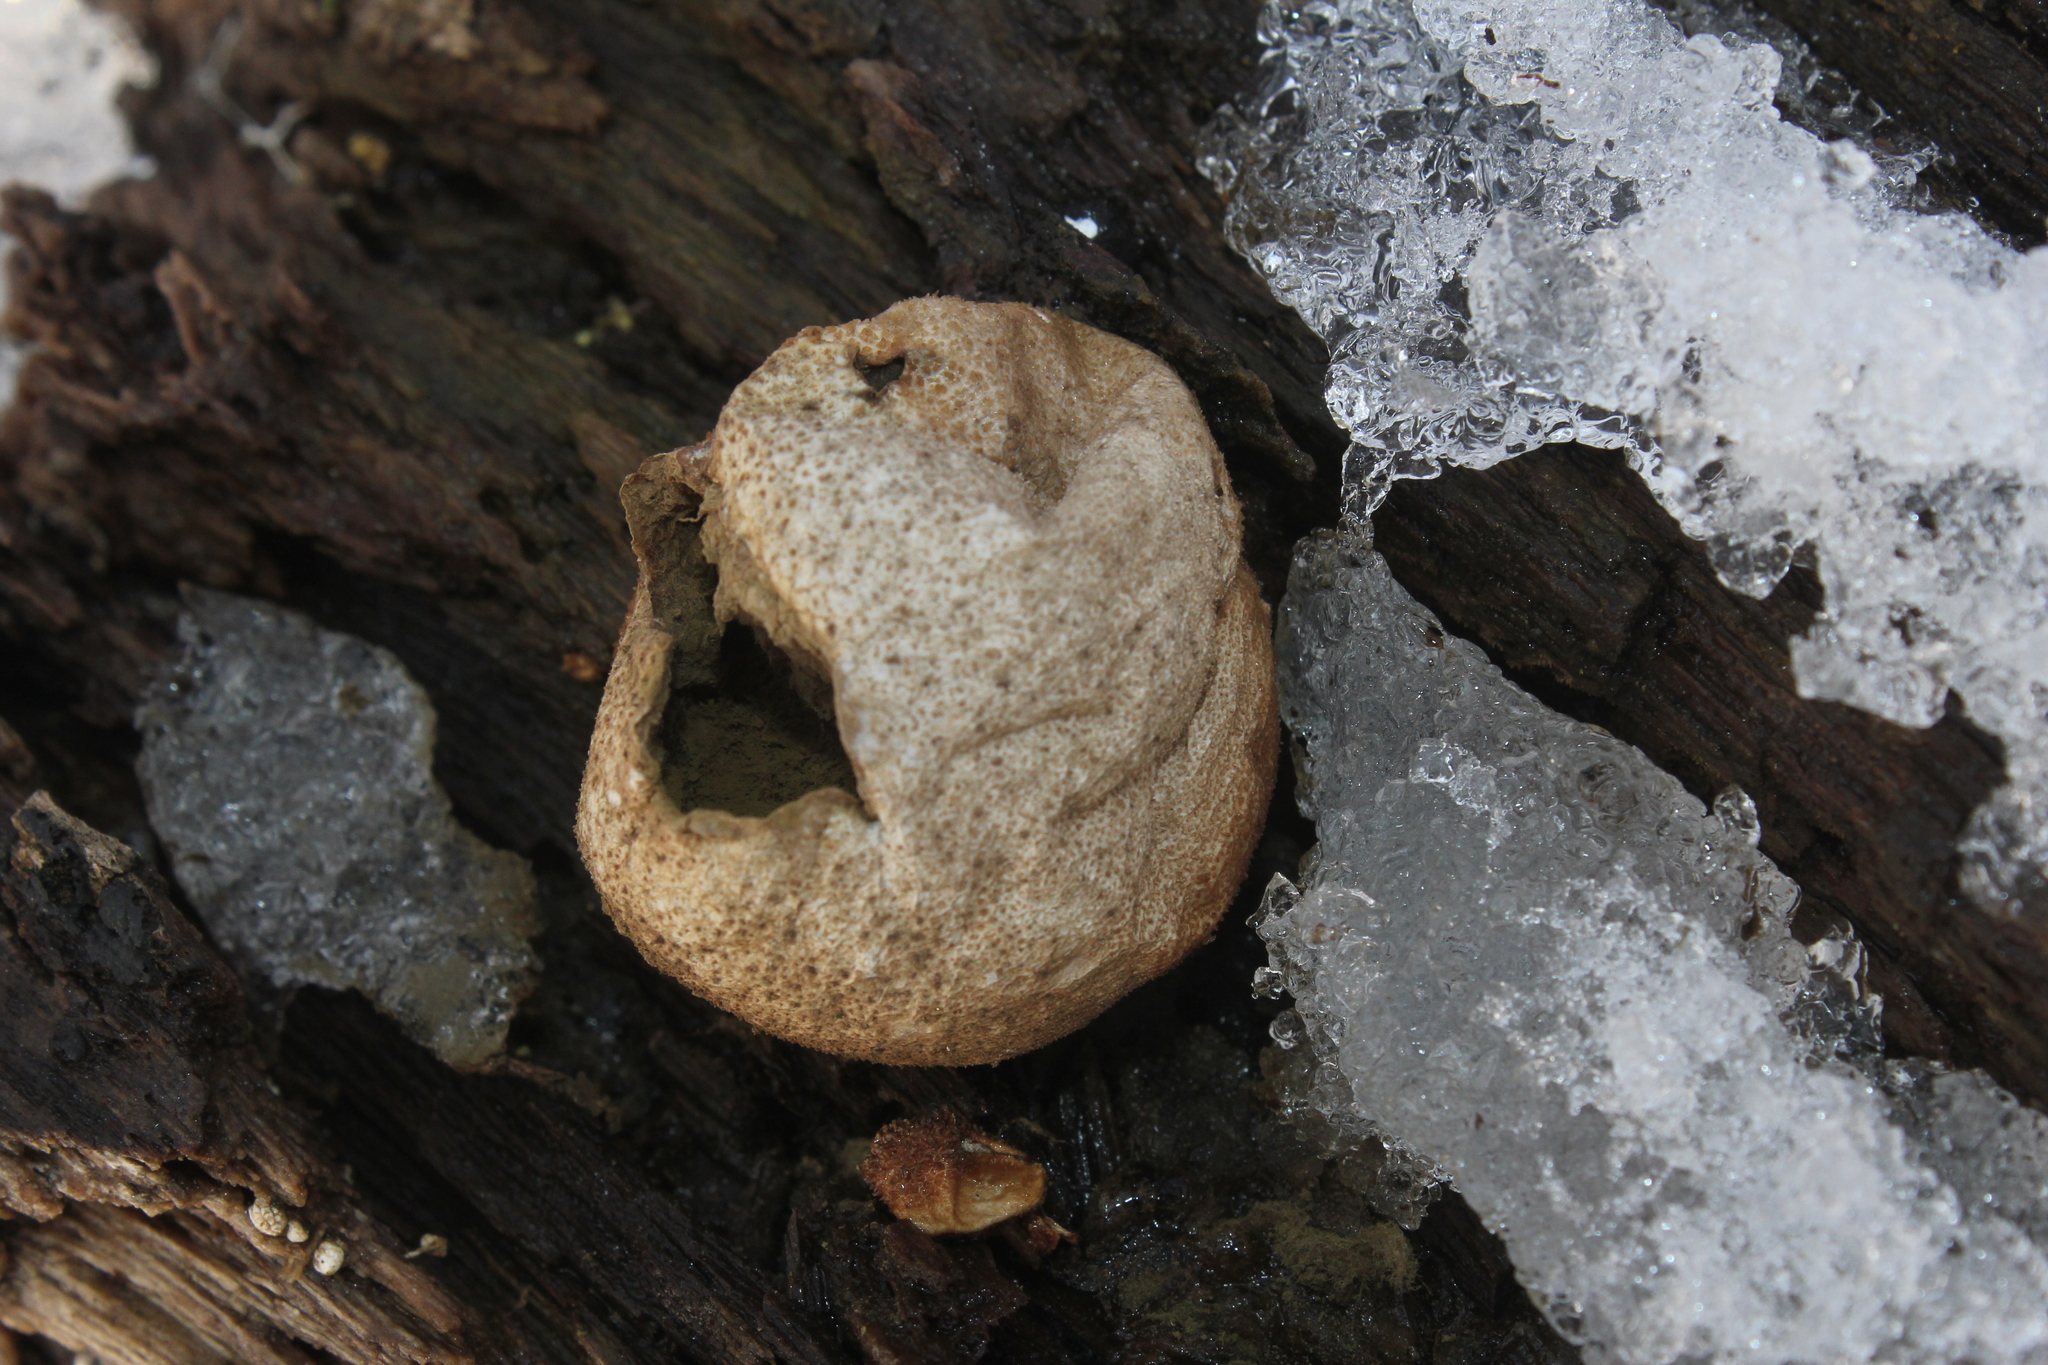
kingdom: Fungi
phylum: Basidiomycota
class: Agaricomycetes
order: Agaricales
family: Lycoperdaceae
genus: Apioperdon
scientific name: Apioperdon pyriforme
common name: Pear-shaped puffball
